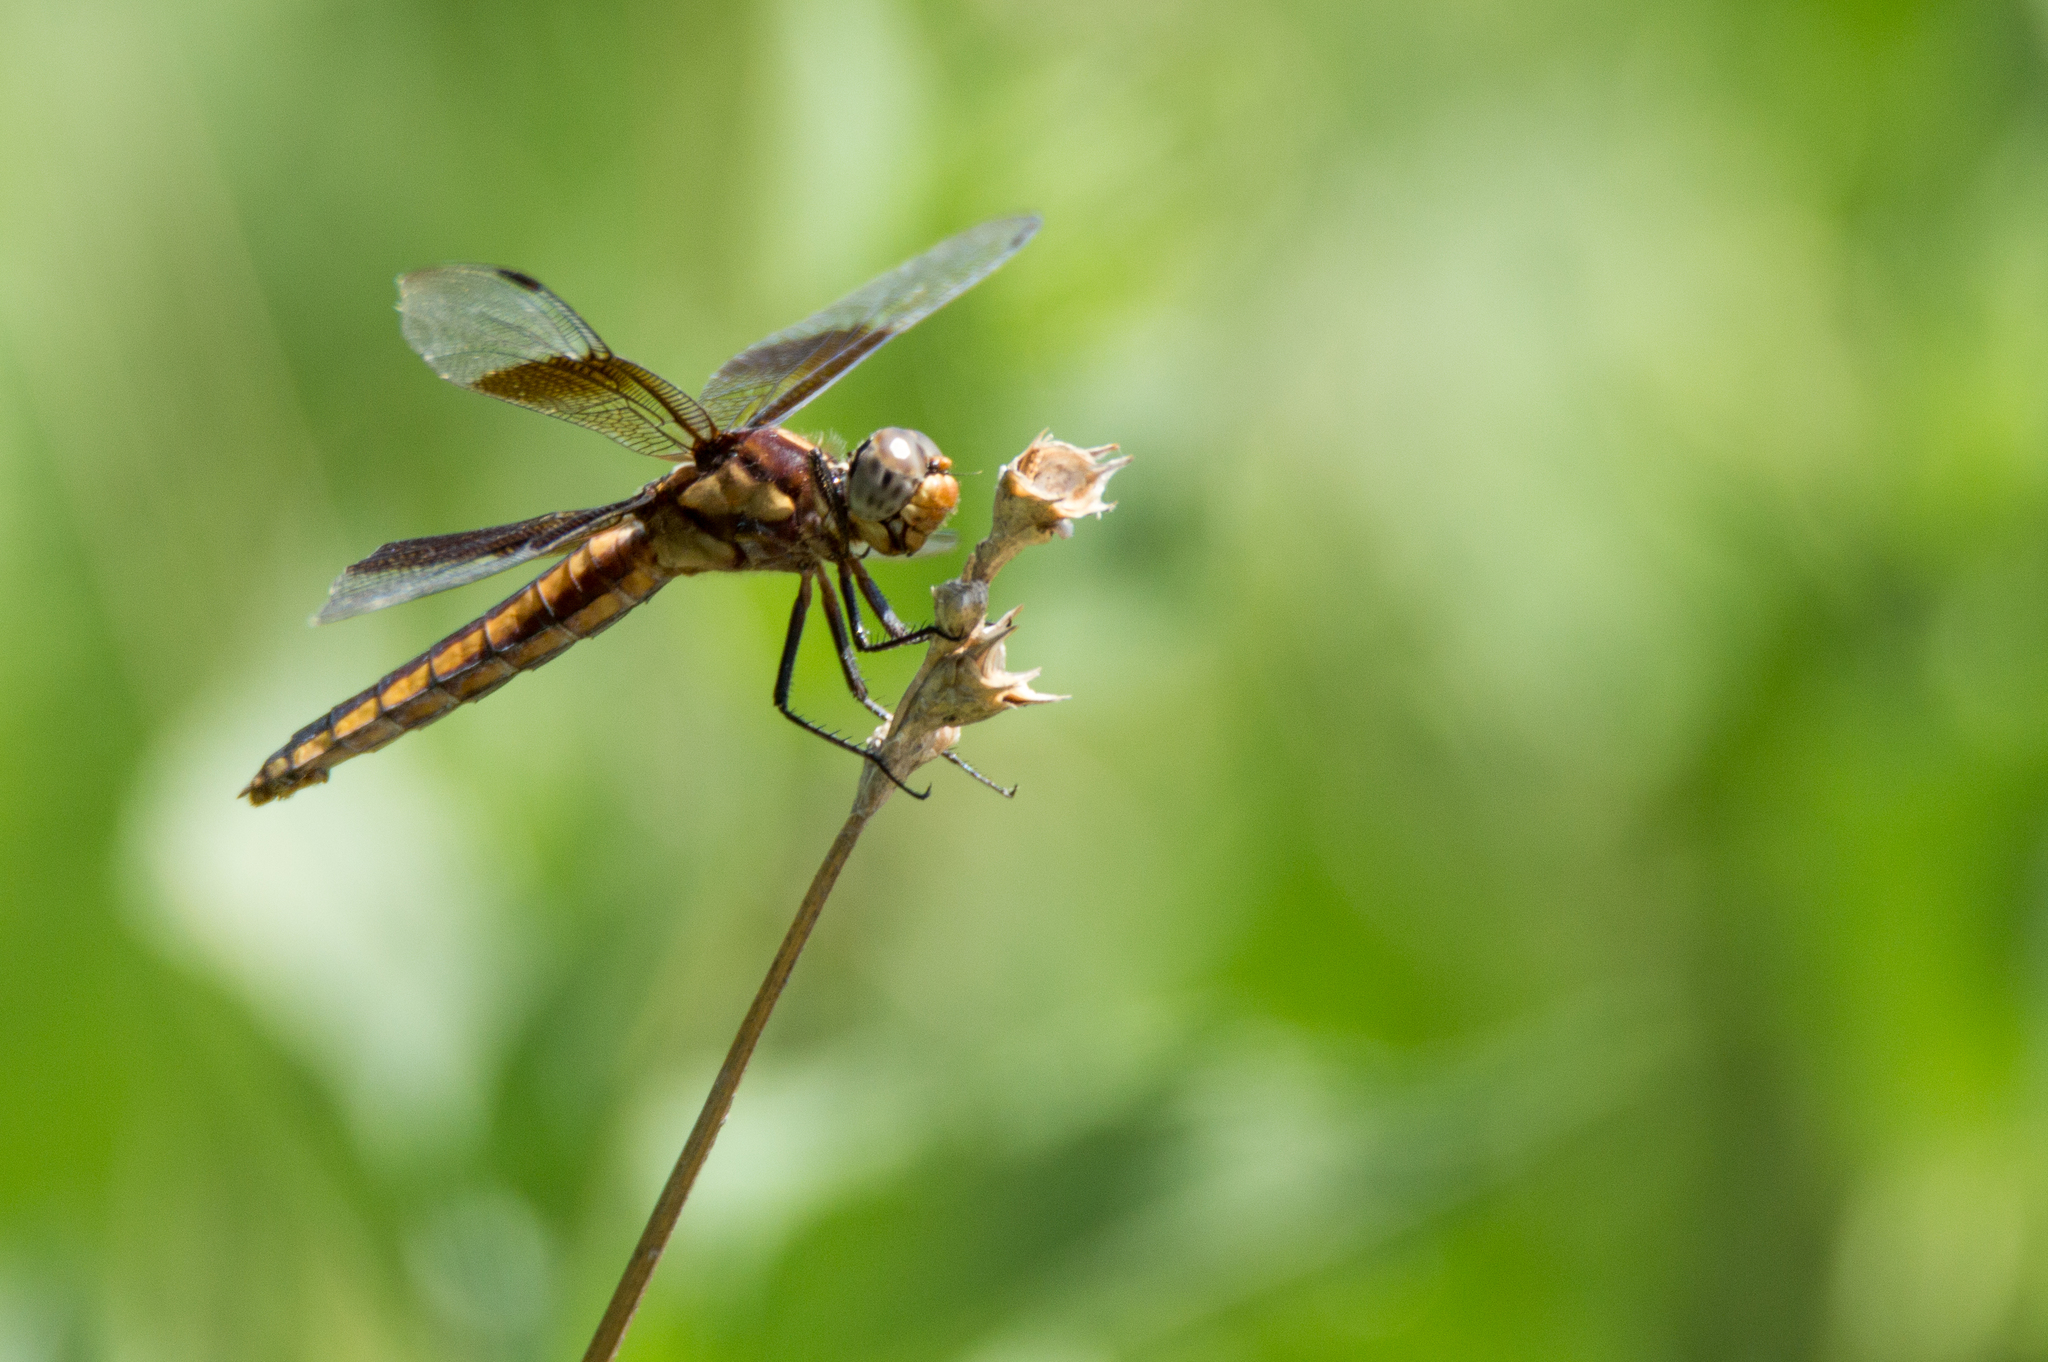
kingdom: Animalia
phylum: Arthropoda
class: Insecta
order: Odonata
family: Libellulidae
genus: Libellula
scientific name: Libellula luctuosa
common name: Widow skimmer
